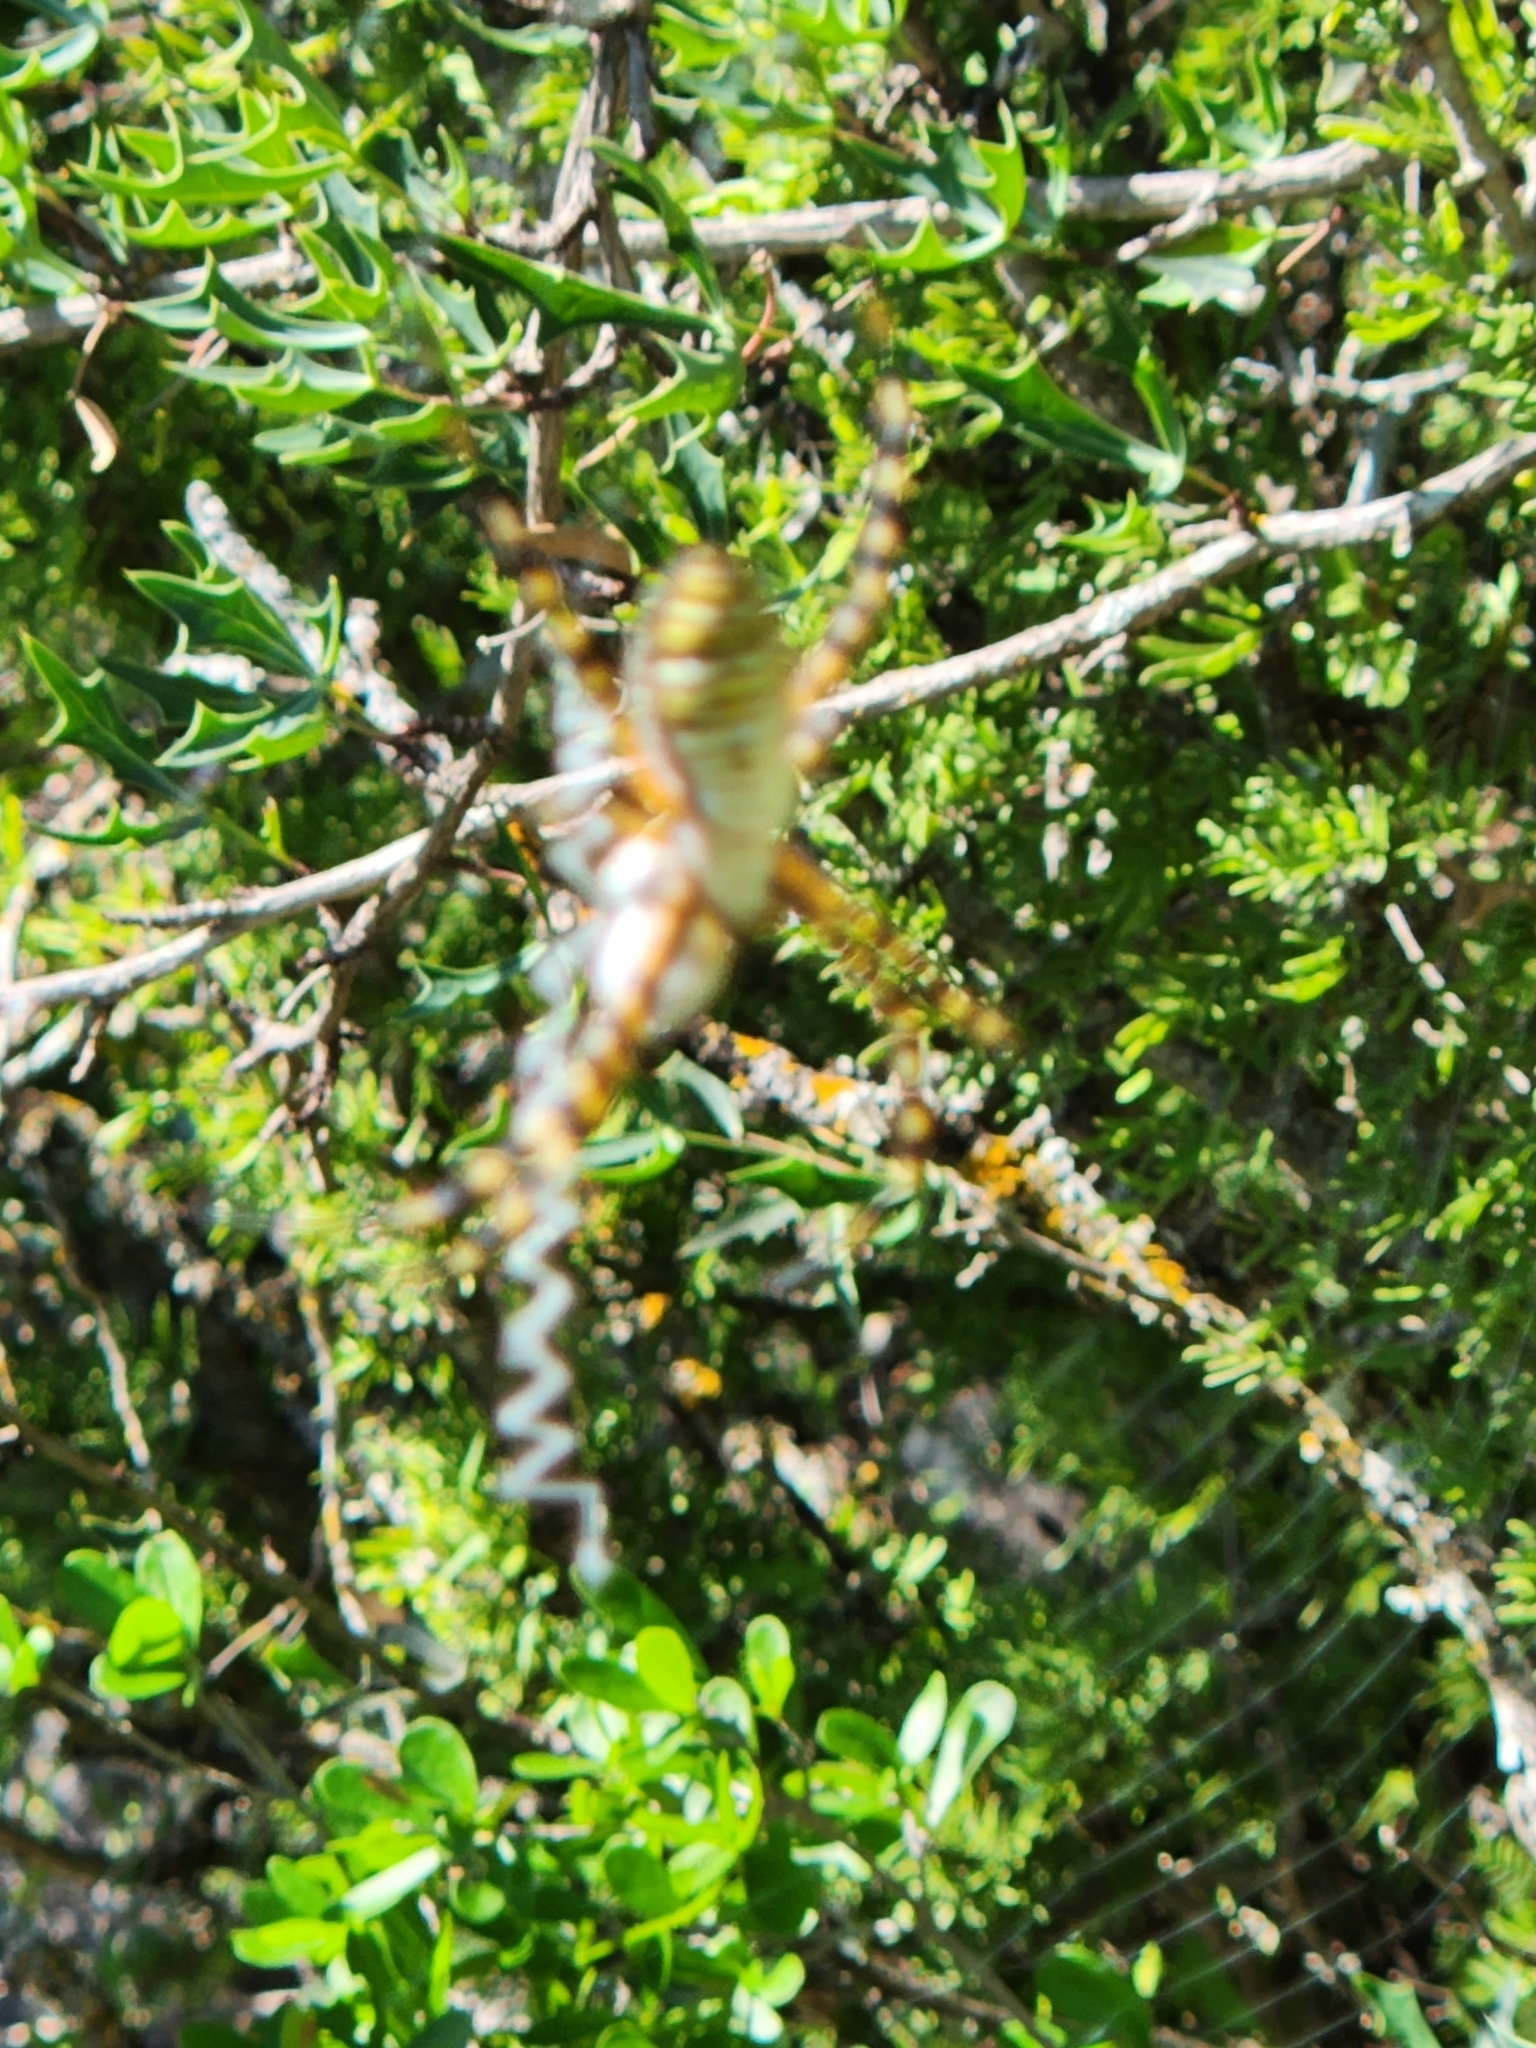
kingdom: Animalia
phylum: Arthropoda
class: Arachnida
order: Araneae
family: Araneidae
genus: Argiope
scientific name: Argiope trifasciata
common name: Banded garden spider
